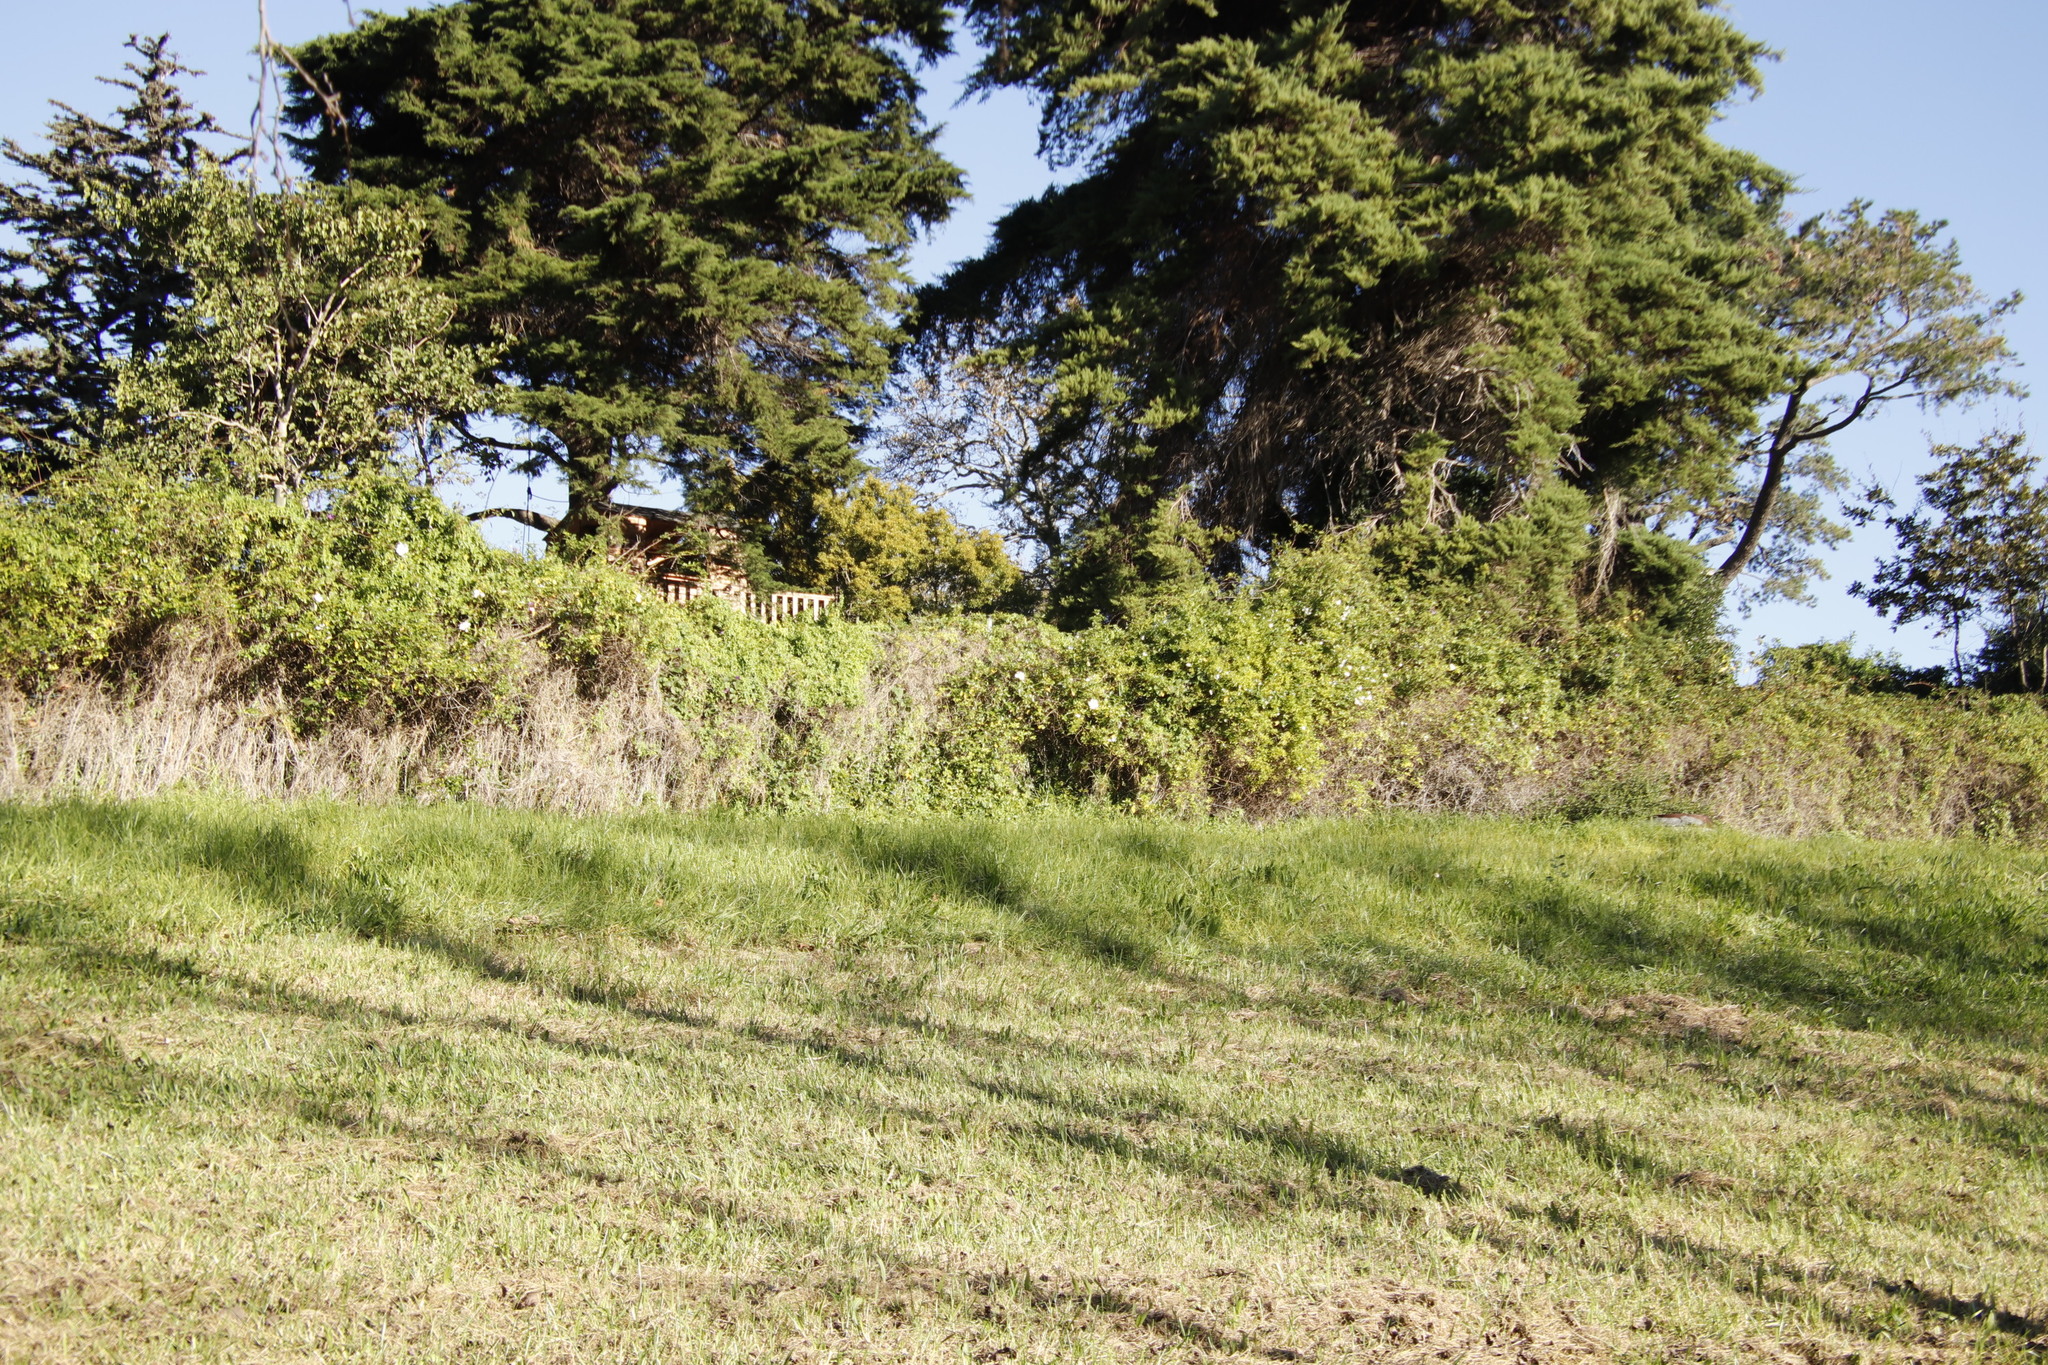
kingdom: Plantae
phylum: Tracheophyta
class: Magnoliopsida
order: Rosales
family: Rosaceae
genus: Rosa
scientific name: Rosa laevigata
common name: Cherokee rose
